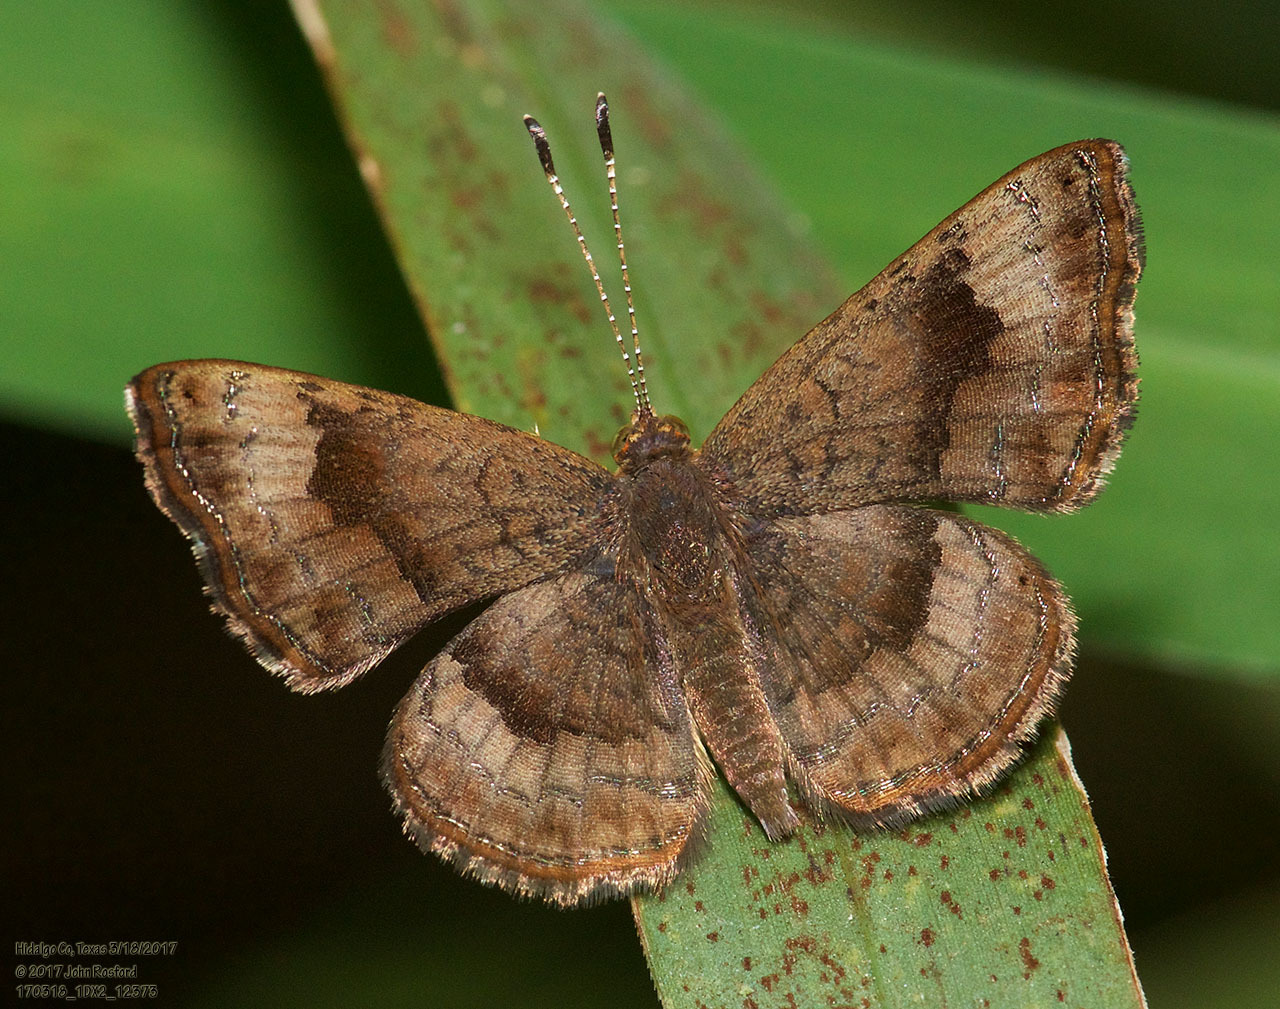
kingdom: Animalia
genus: Calephelis
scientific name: Calephelis nemesis
